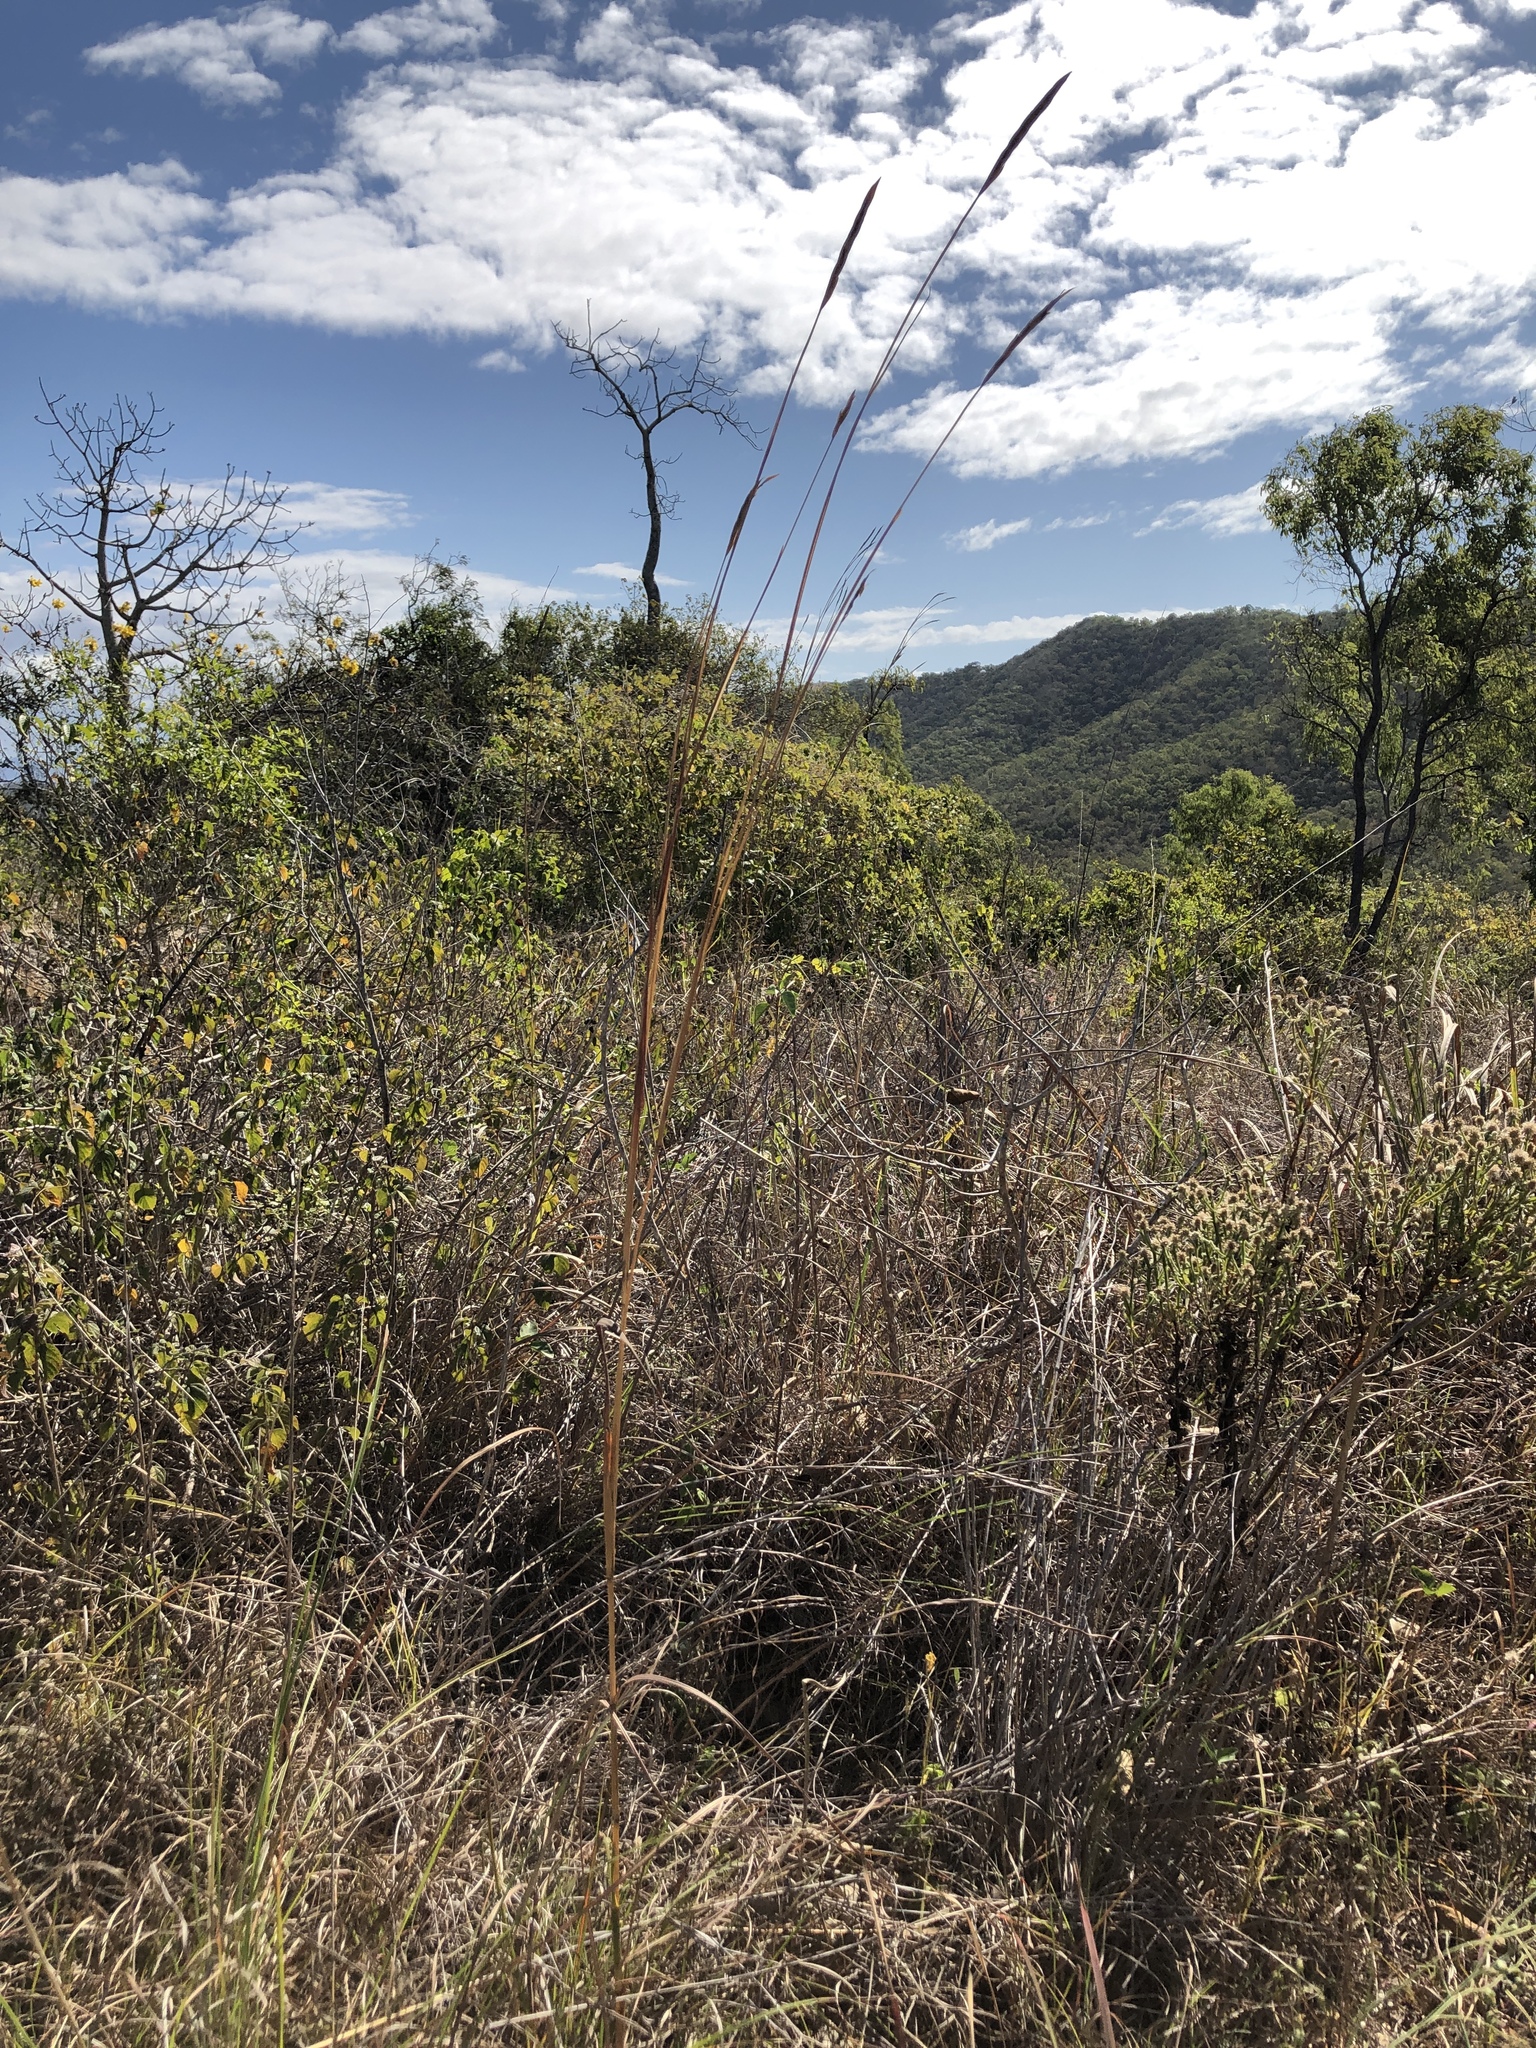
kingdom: Plantae
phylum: Tracheophyta
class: Liliopsida
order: Poales
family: Poaceae
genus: Heteropogon
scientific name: Heteropogon triticeus
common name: Sugar grass
